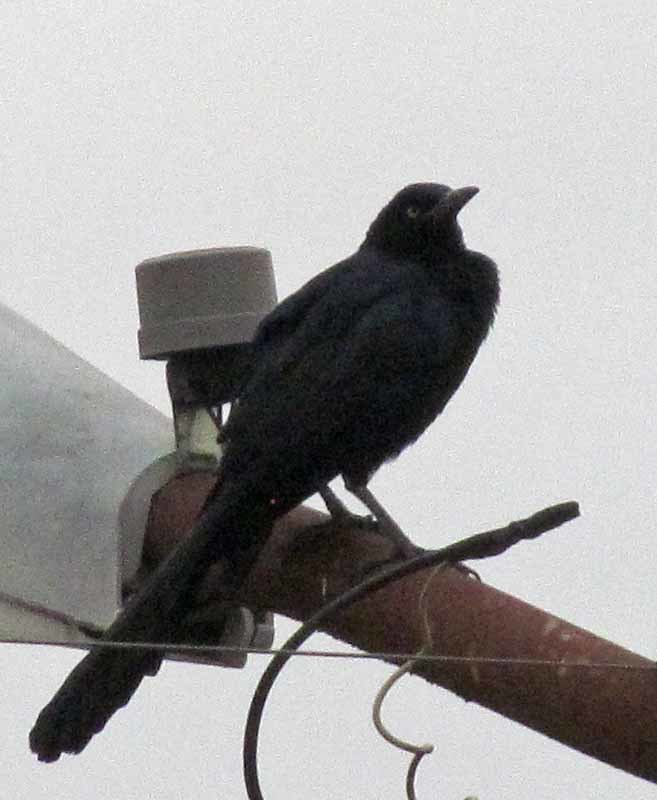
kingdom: Animalia
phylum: Chordata
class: Aves
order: Passeriformes
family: Icteridae
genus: Quiscalus
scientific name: Quiscalus mexicanus
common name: Great-tailed grackle
